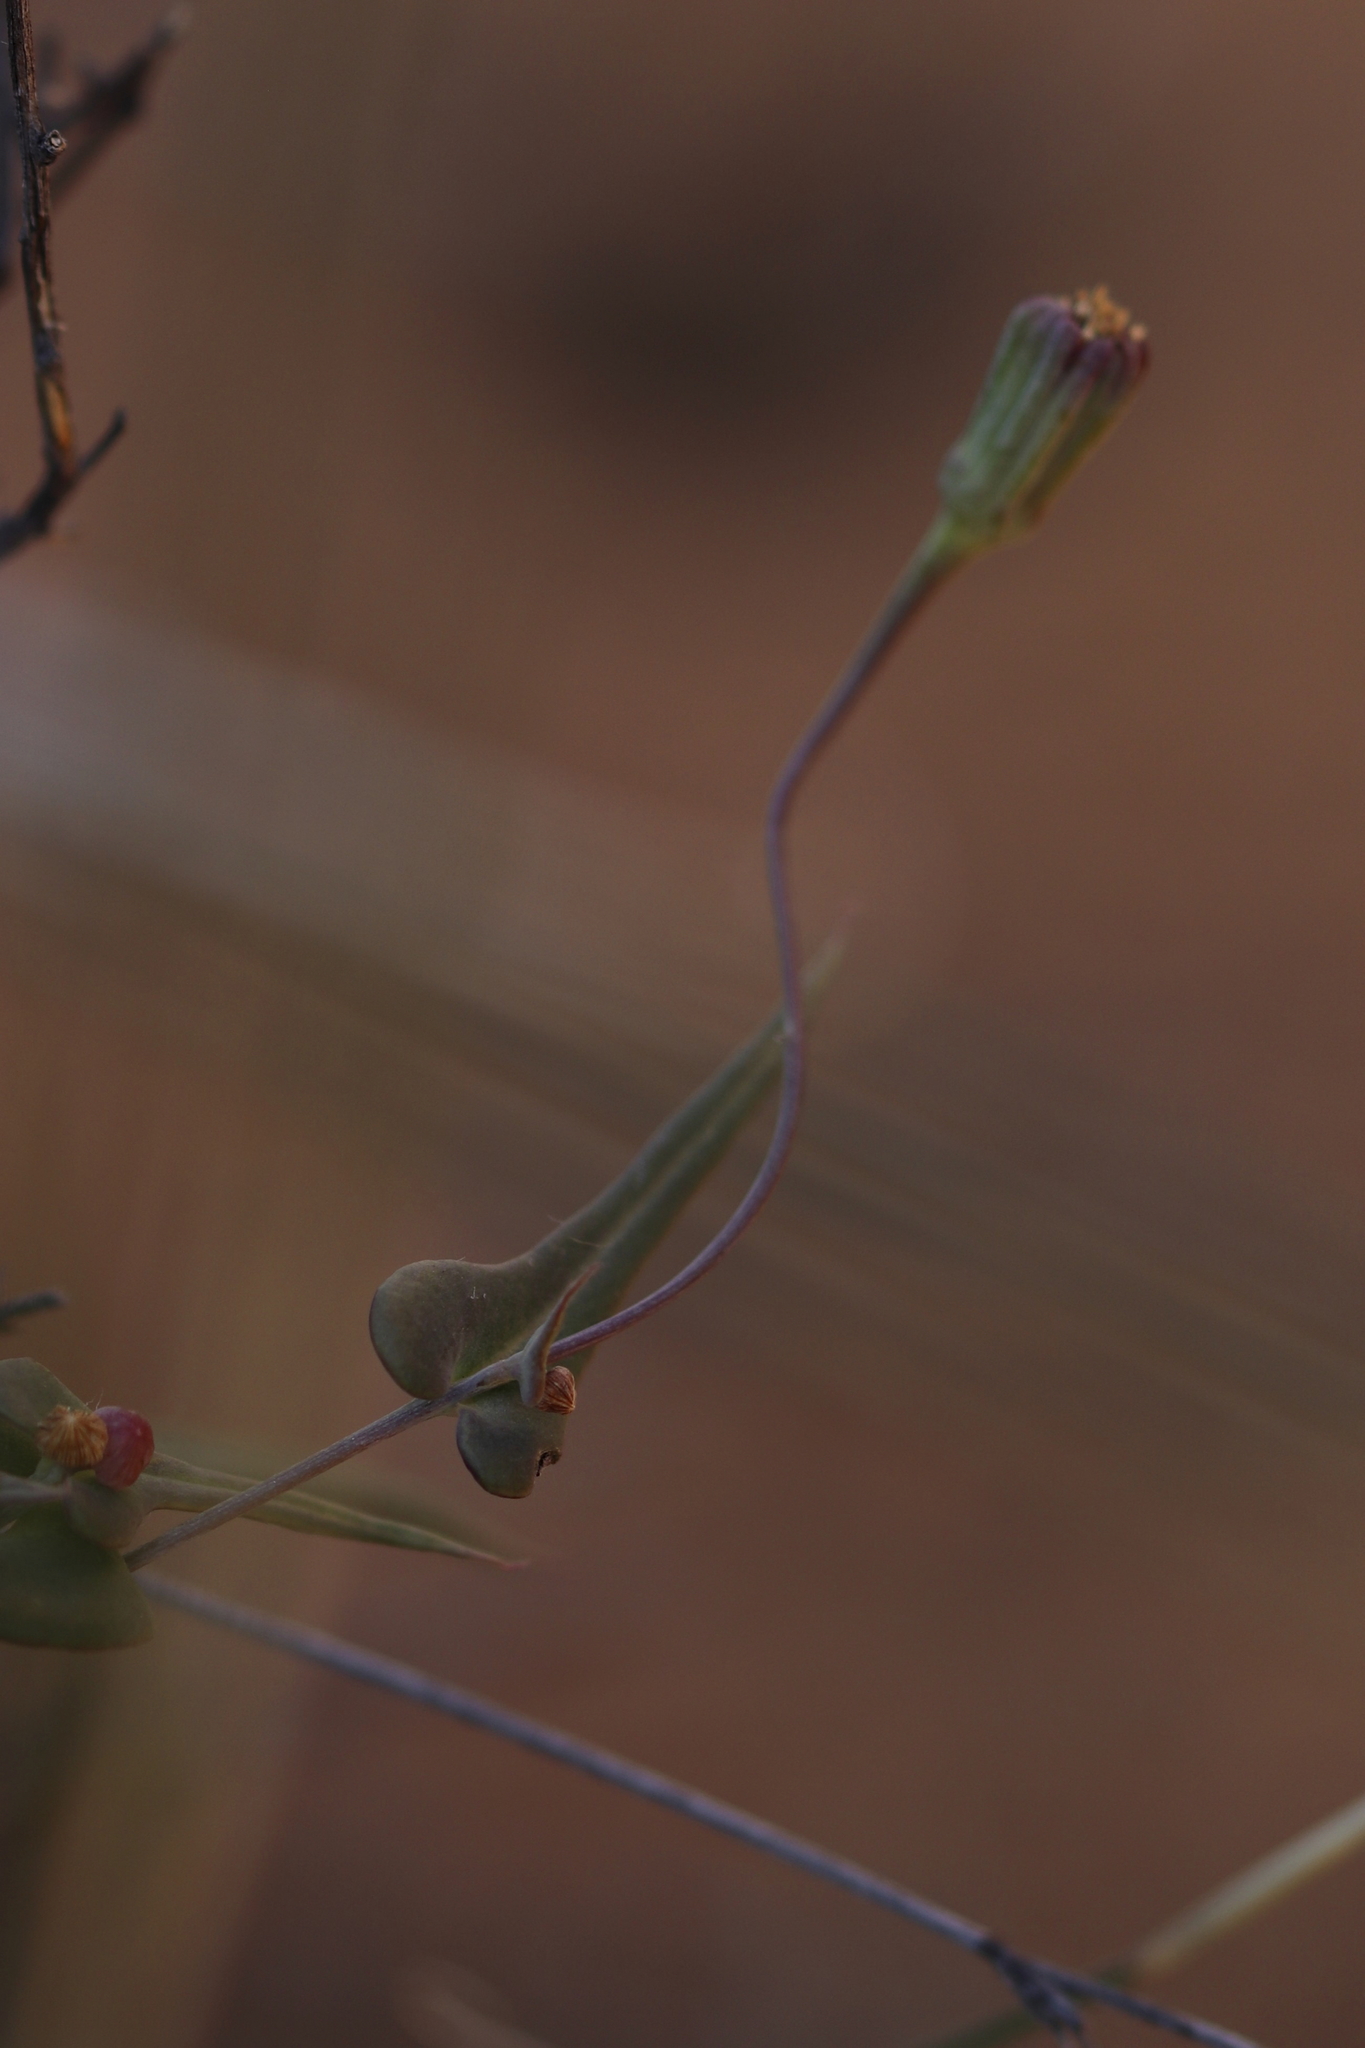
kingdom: Plantae
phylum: Tracheophyta
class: Magnoliopsida
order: Asterales
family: Asteraceae
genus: Othonna
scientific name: Othonna undulosa
